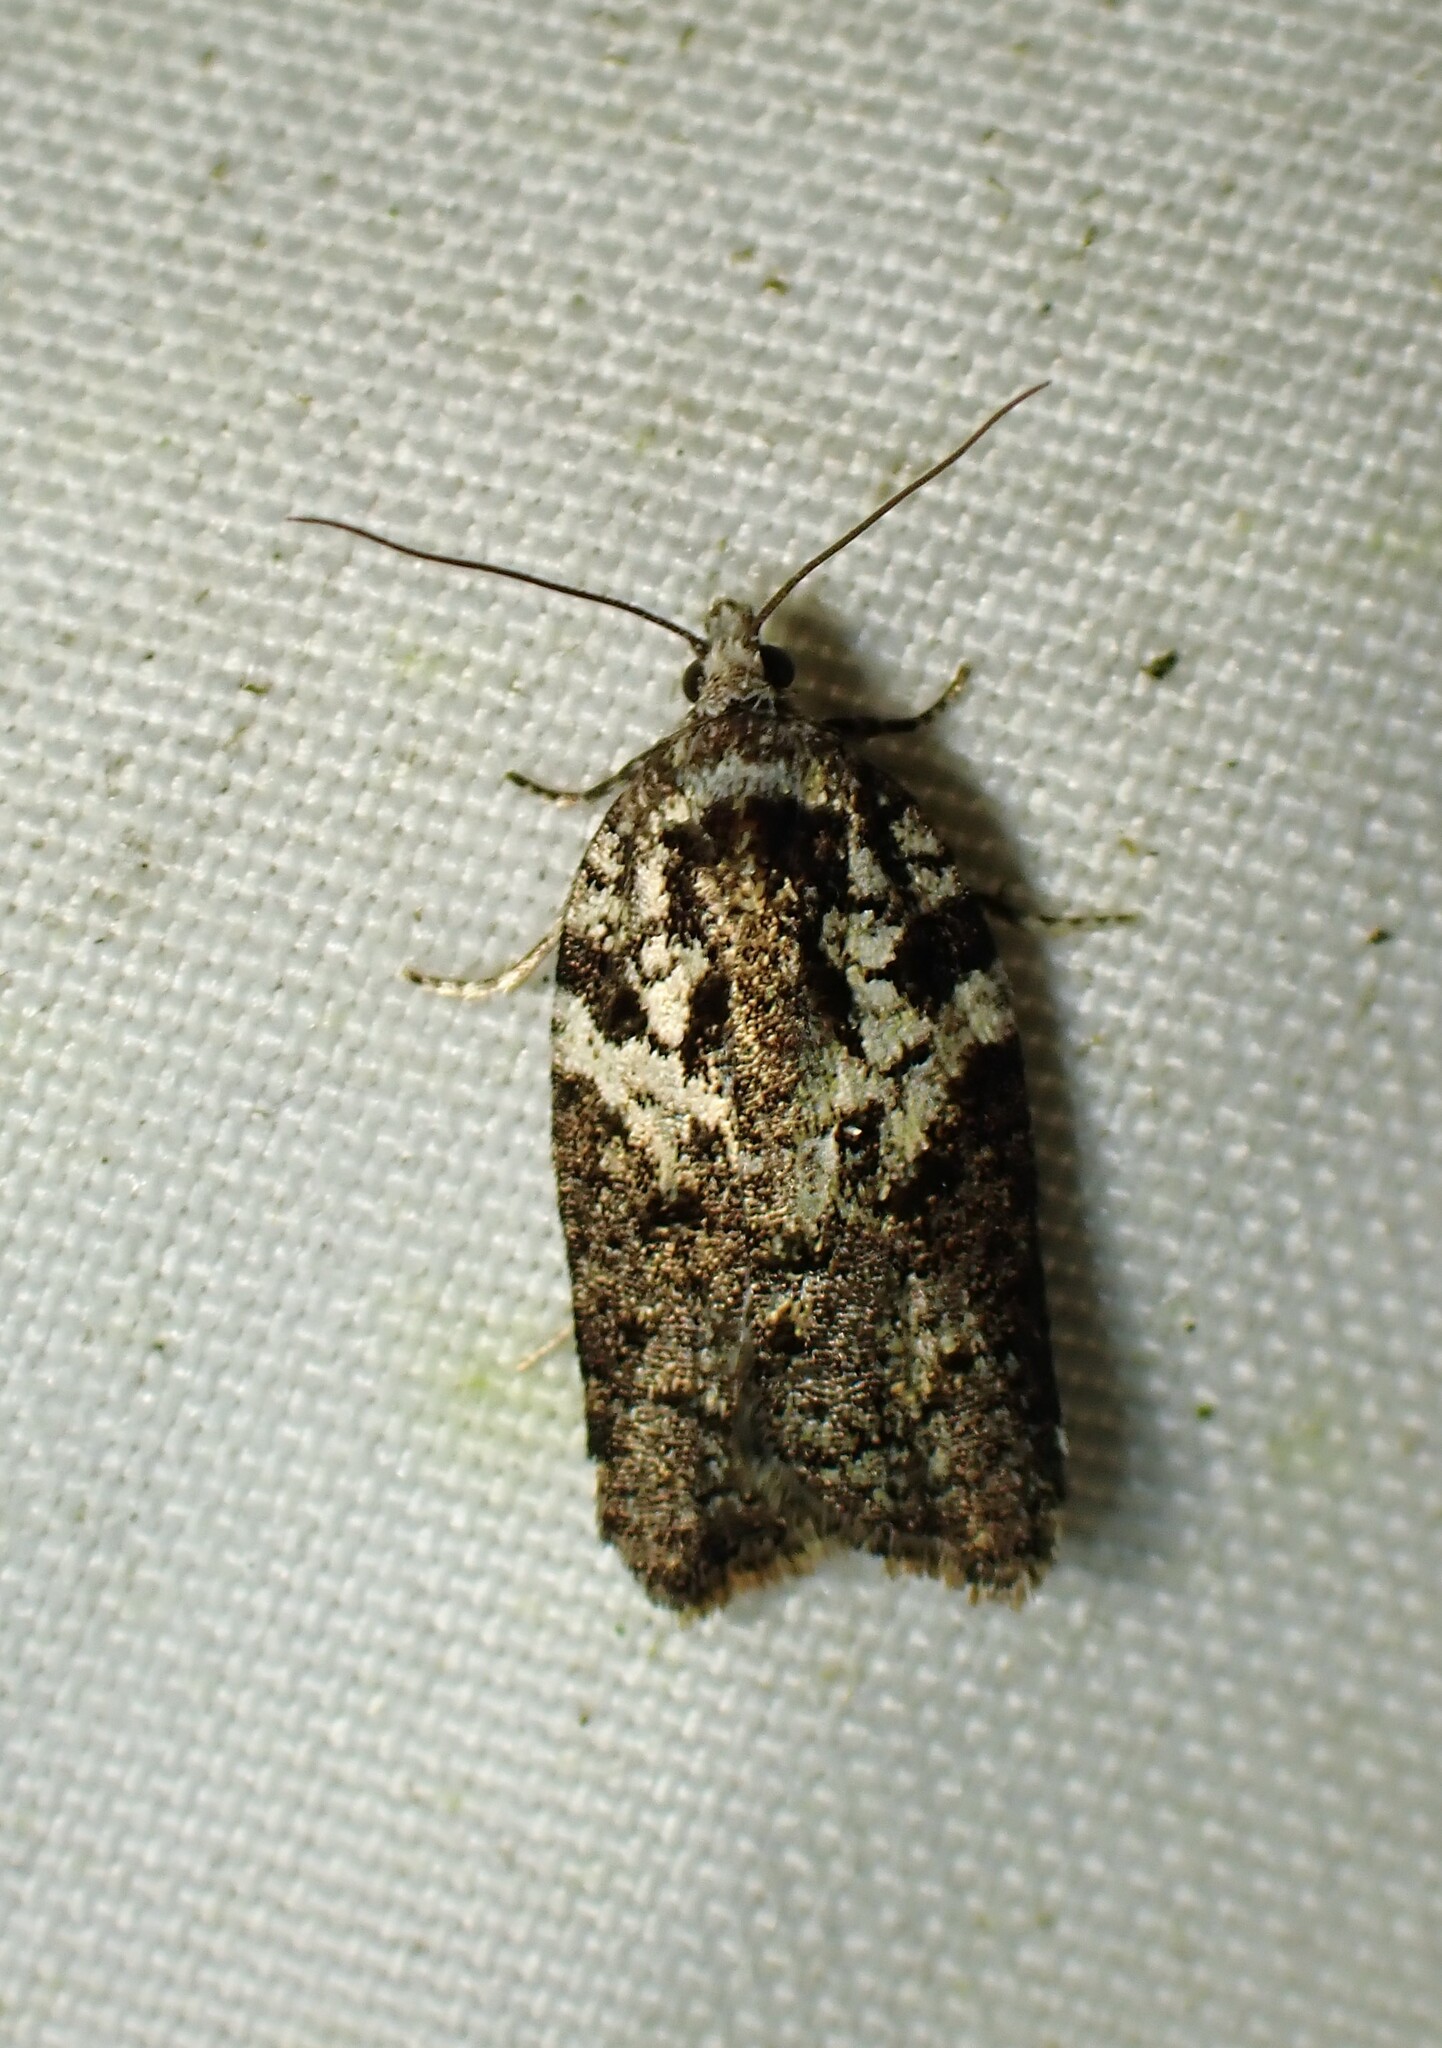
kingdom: Animalia
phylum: Arthropoda
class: Insecta
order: Lepidoptera
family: Tortricidae
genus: Acleris
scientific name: Acleris variana
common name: Eastern black-headed budworm moth
